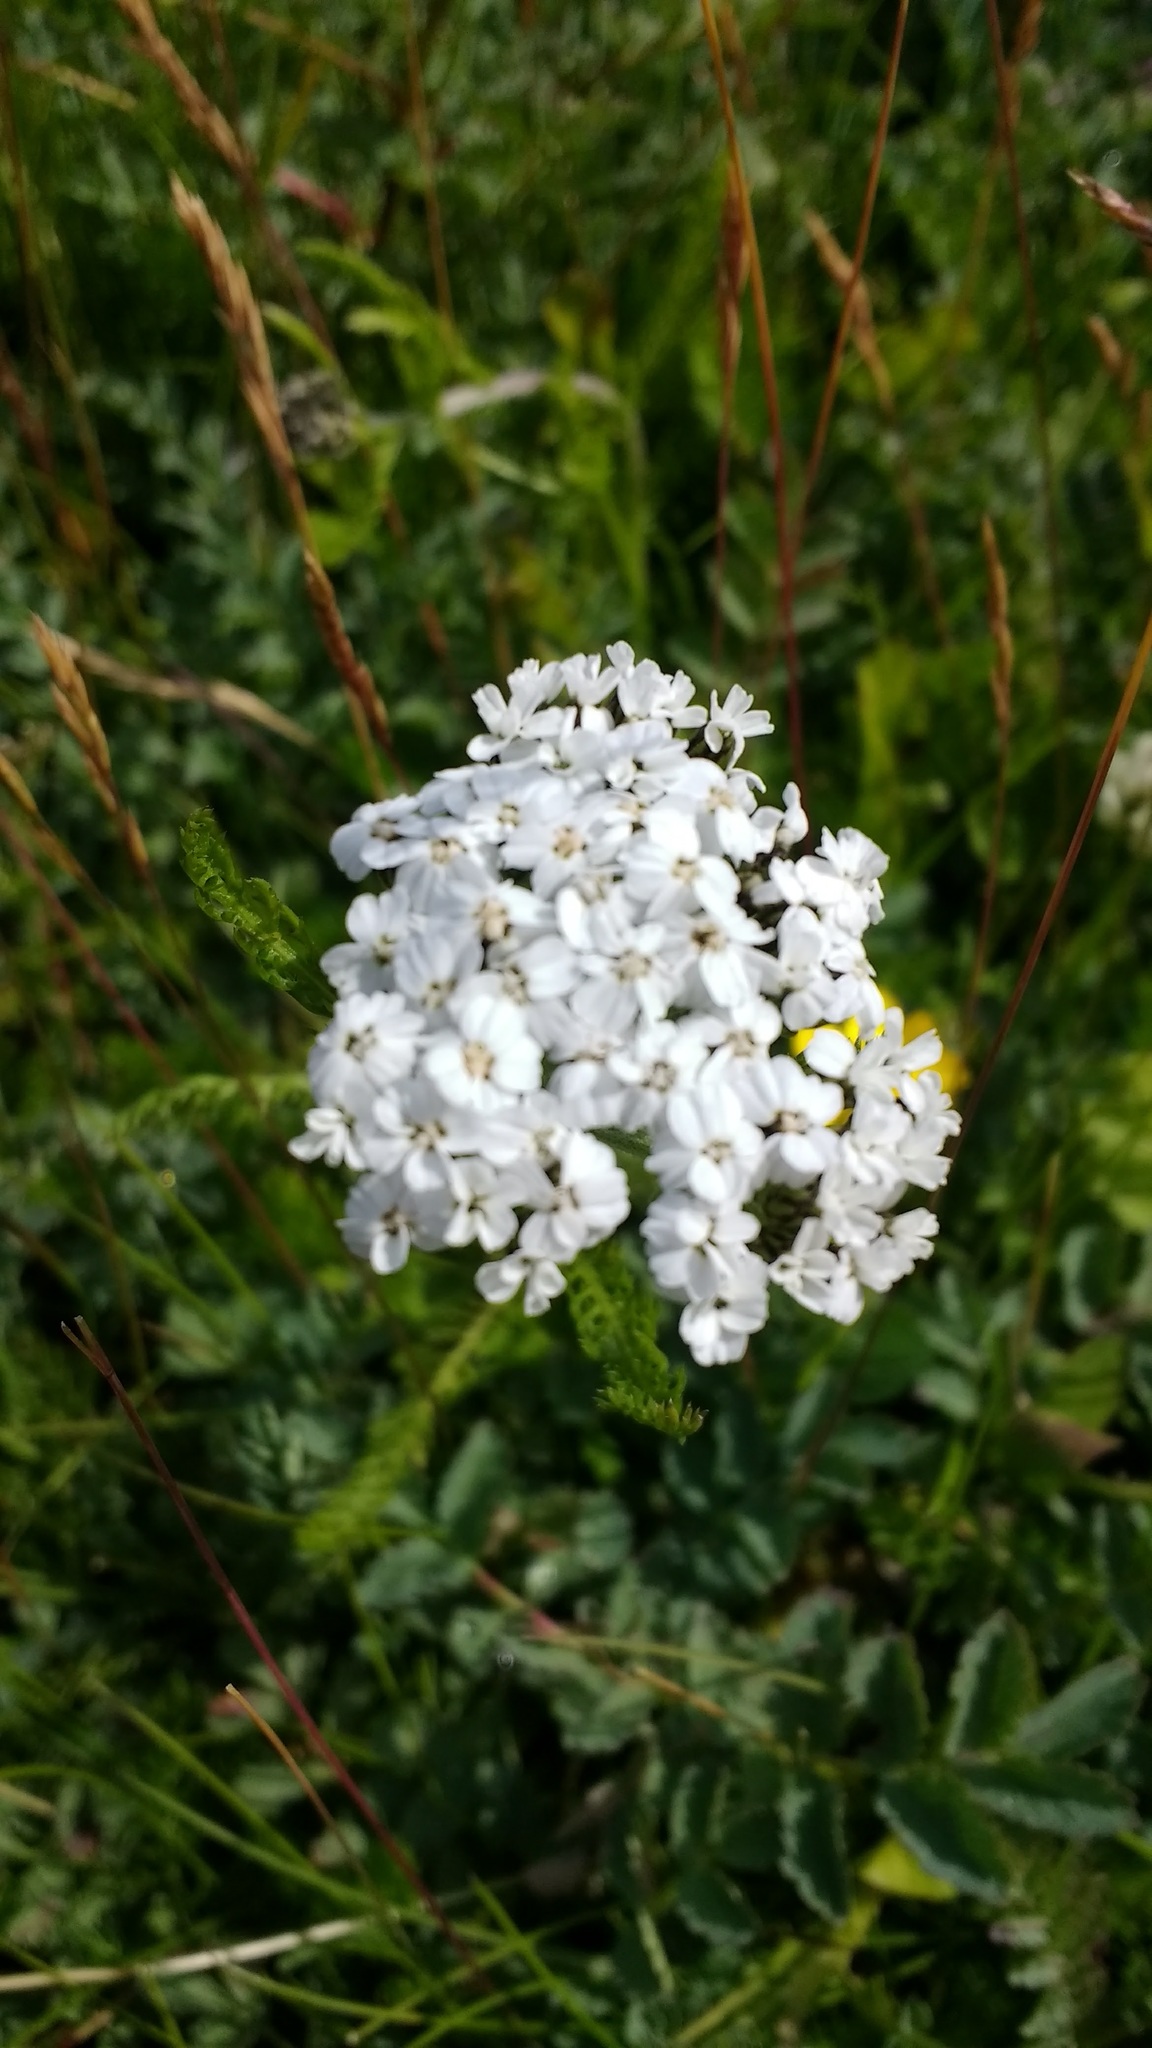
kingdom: Plantae
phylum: Tracheophyta
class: Magnoliopsida
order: Asterales
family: Asteraceae
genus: Achillea
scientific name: Achillea millefolium
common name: Yarrow
